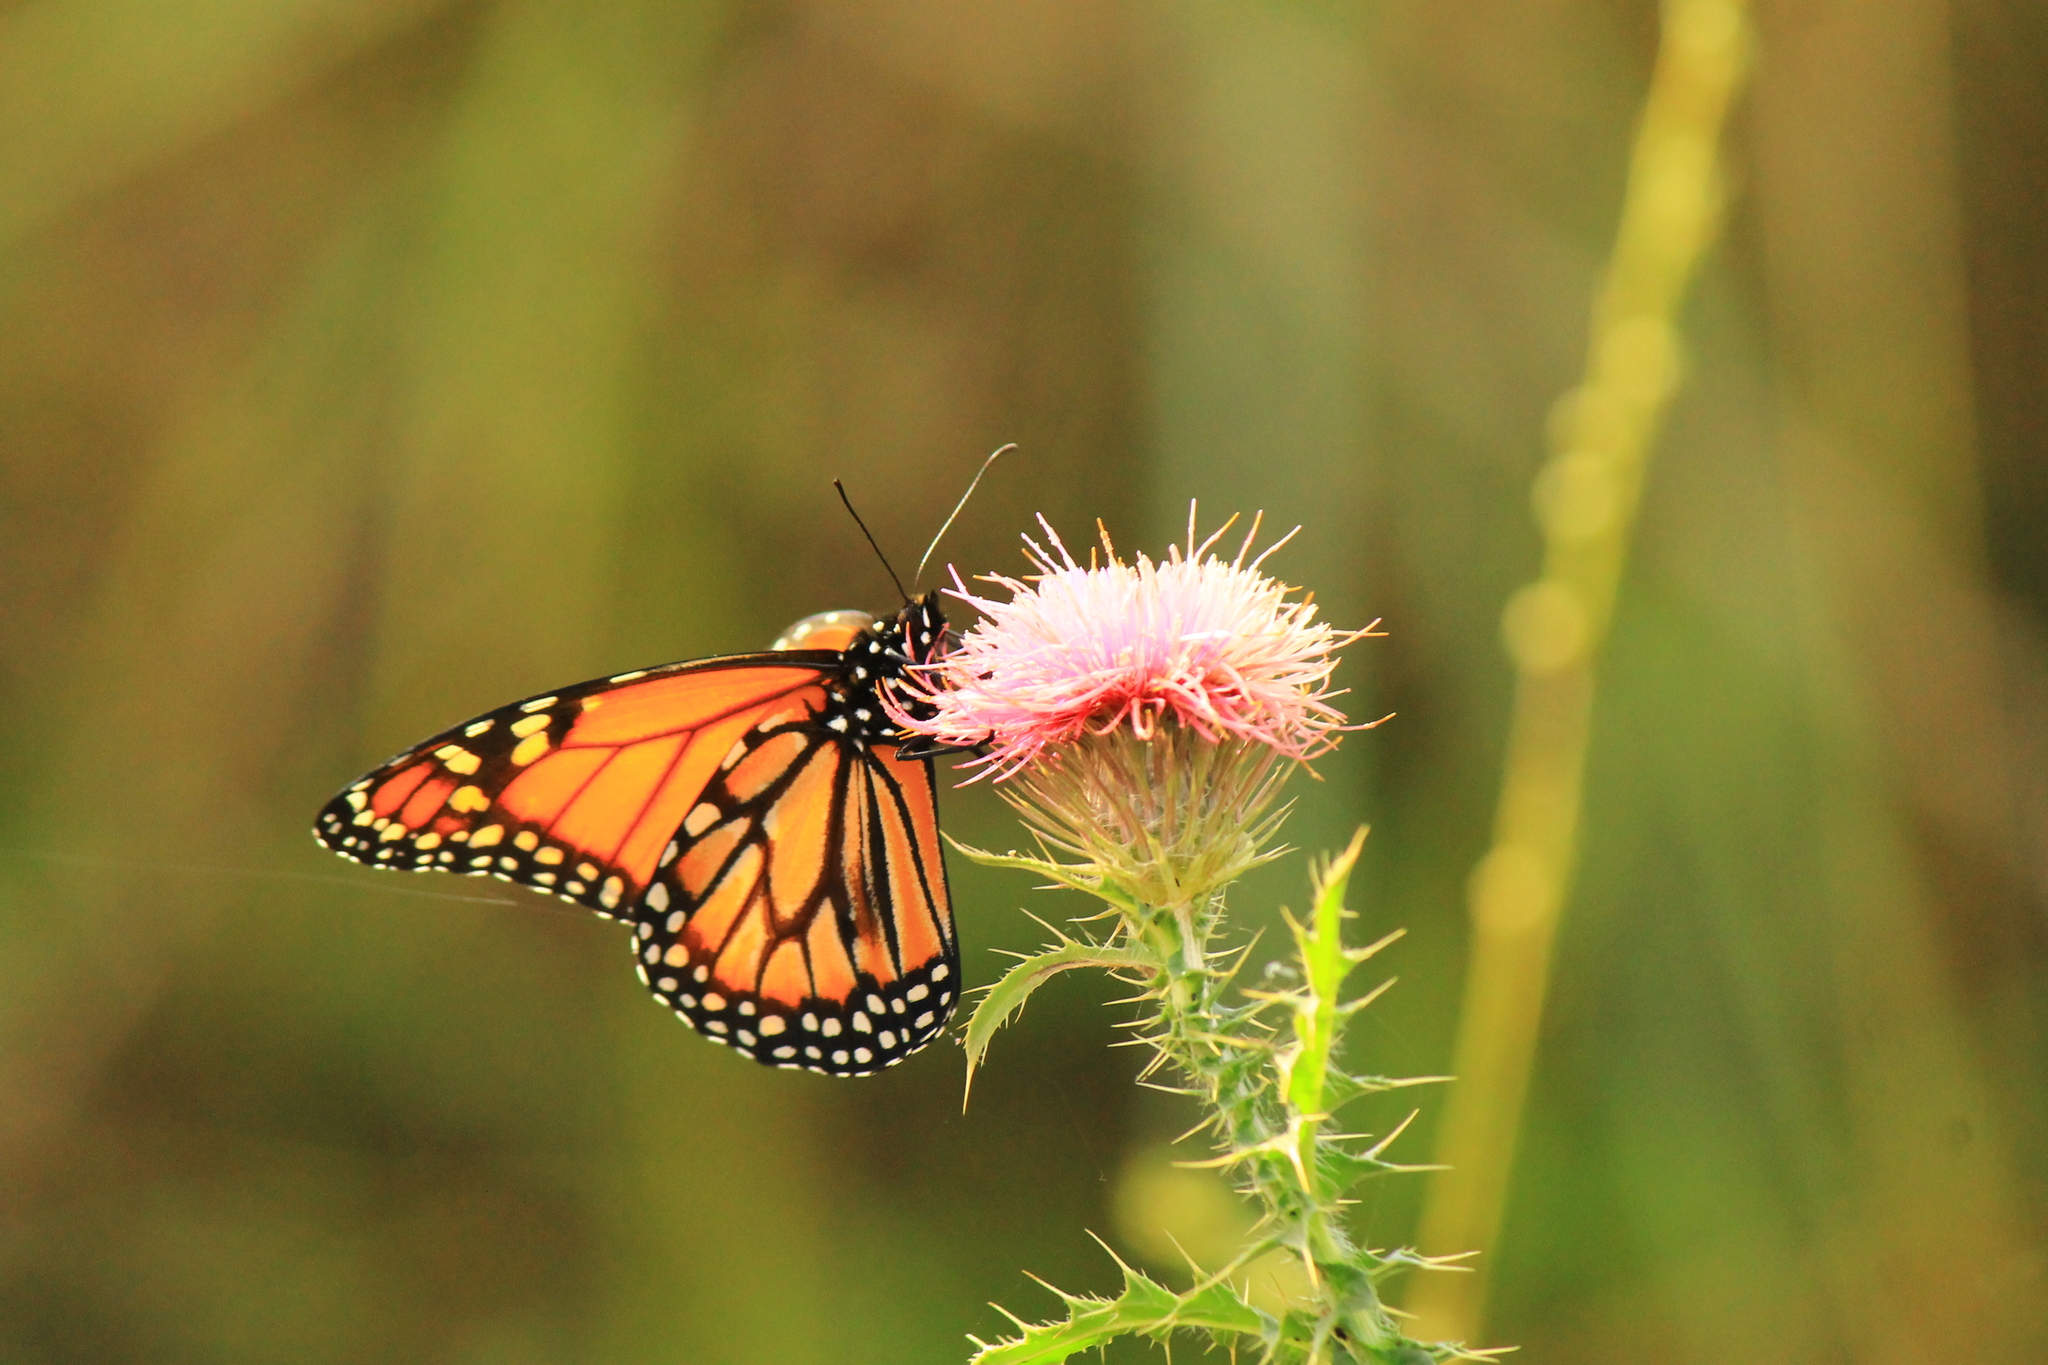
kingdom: Animalia
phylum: Arthropoda
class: Insecta
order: Lepidoptera
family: Nymphalidae
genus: Danaus
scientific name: Danaus erippus
